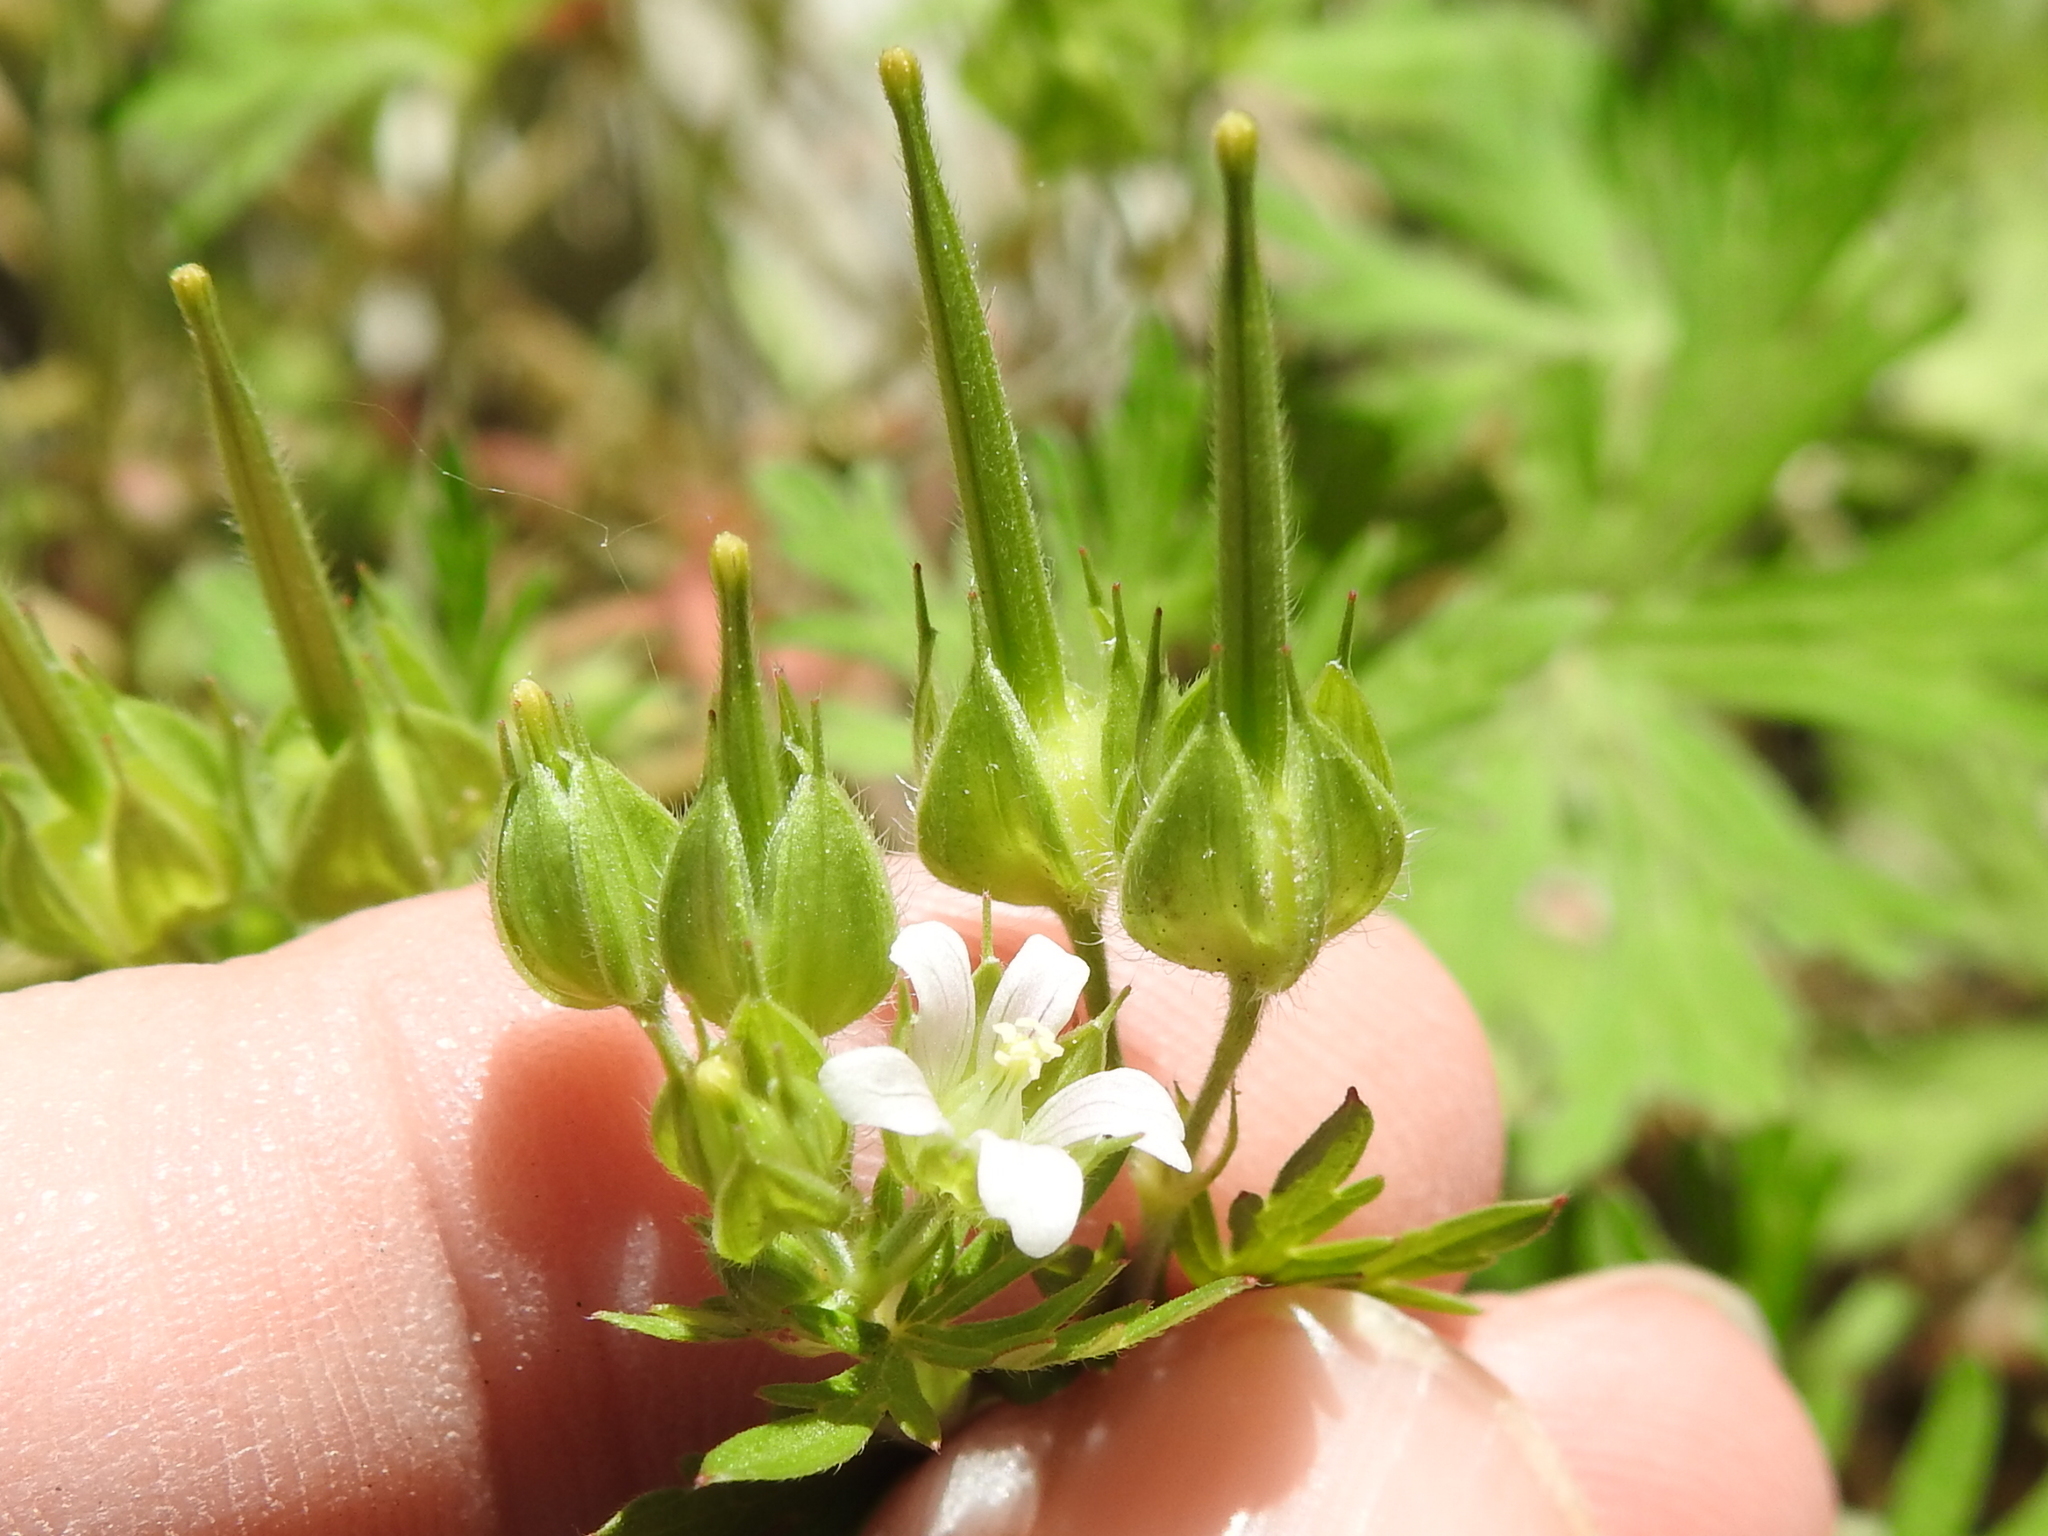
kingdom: Plantae
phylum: Tracheophyta
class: Magnoliopsida
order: Geraniales
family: Geraniaceae
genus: Geranium
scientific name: Geranium carolinianum
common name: Carolina crane's-bill
